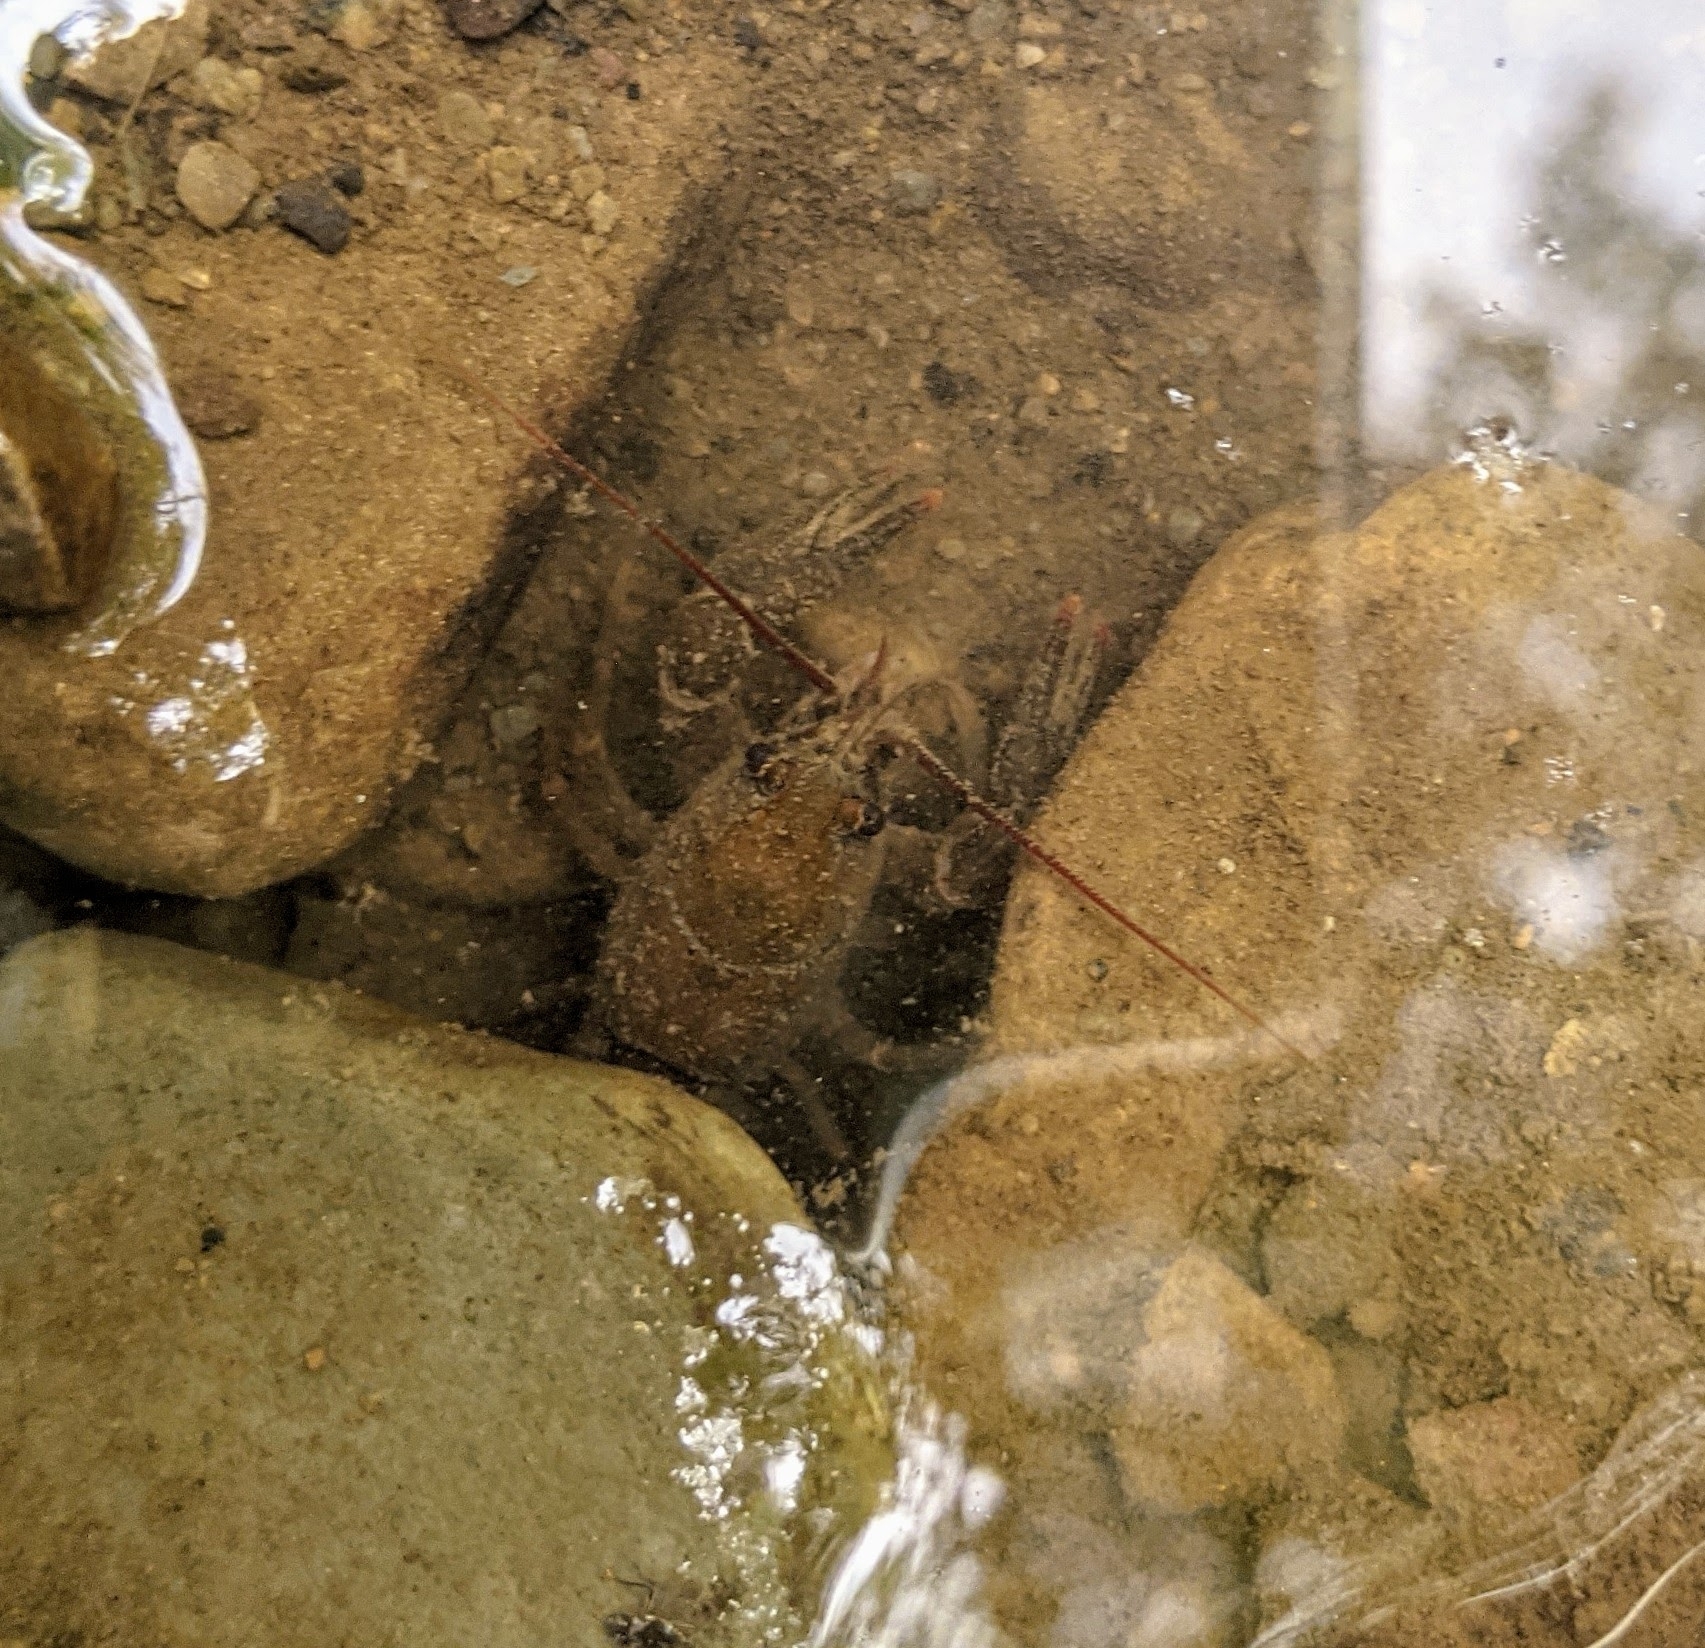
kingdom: Animalia
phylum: Arthropoda
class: Malacostraca
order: Decapoda
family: Cambaridae
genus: Cambarus
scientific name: Cambarus bartonii
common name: Appalachian brook crayfish
